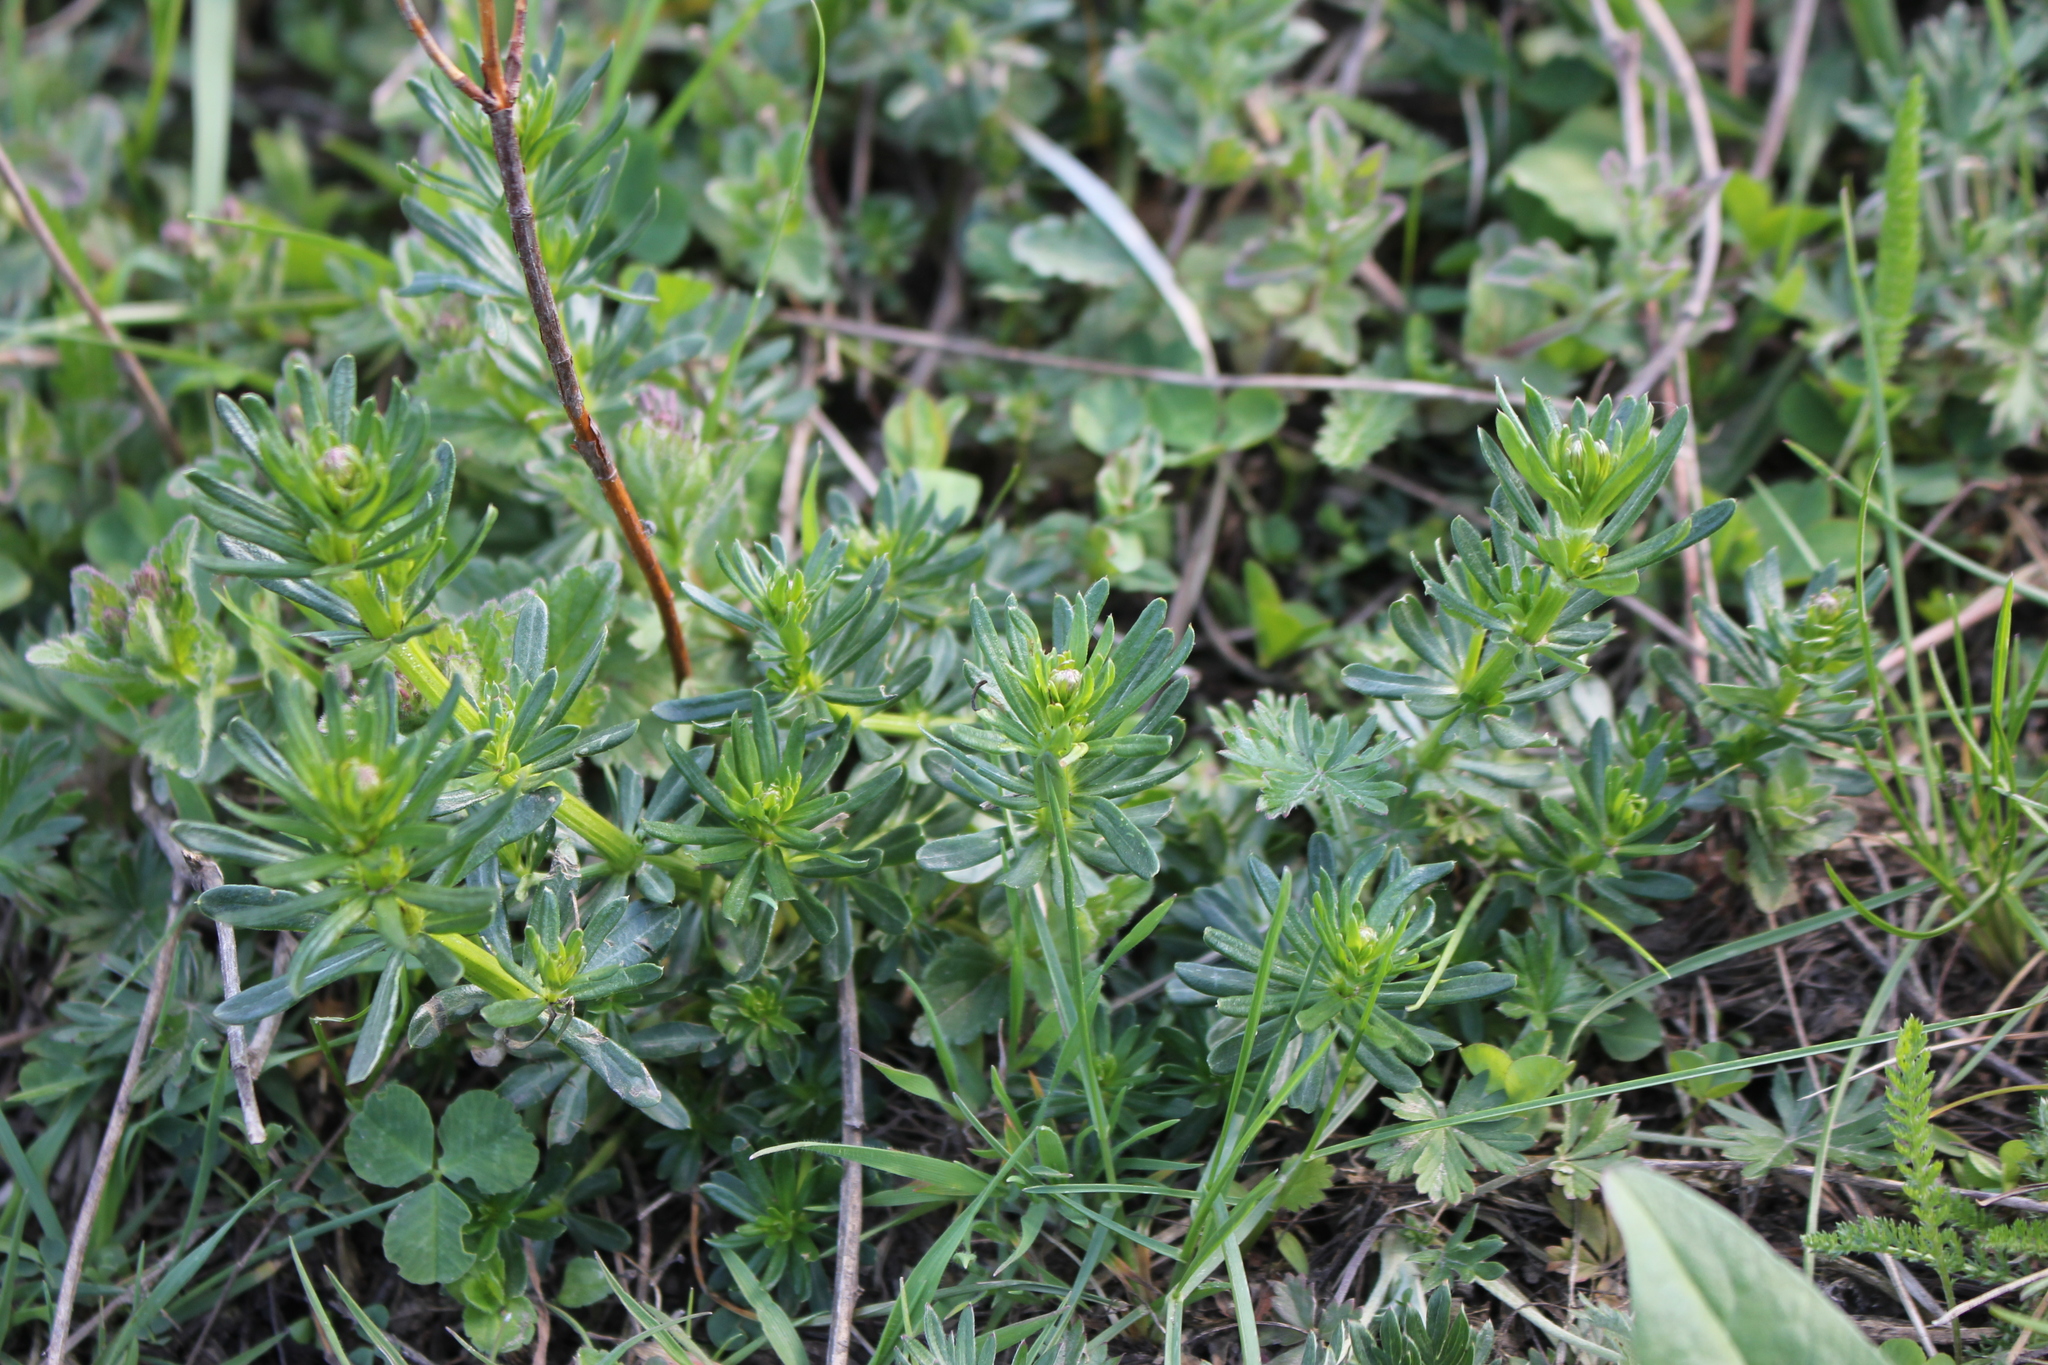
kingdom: Plantae
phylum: Tracheophyta
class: Magnoliopsida
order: Gentianales
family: Rubiaceae
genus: Galium
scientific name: Galium mollugo
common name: Hedge bedstraw
